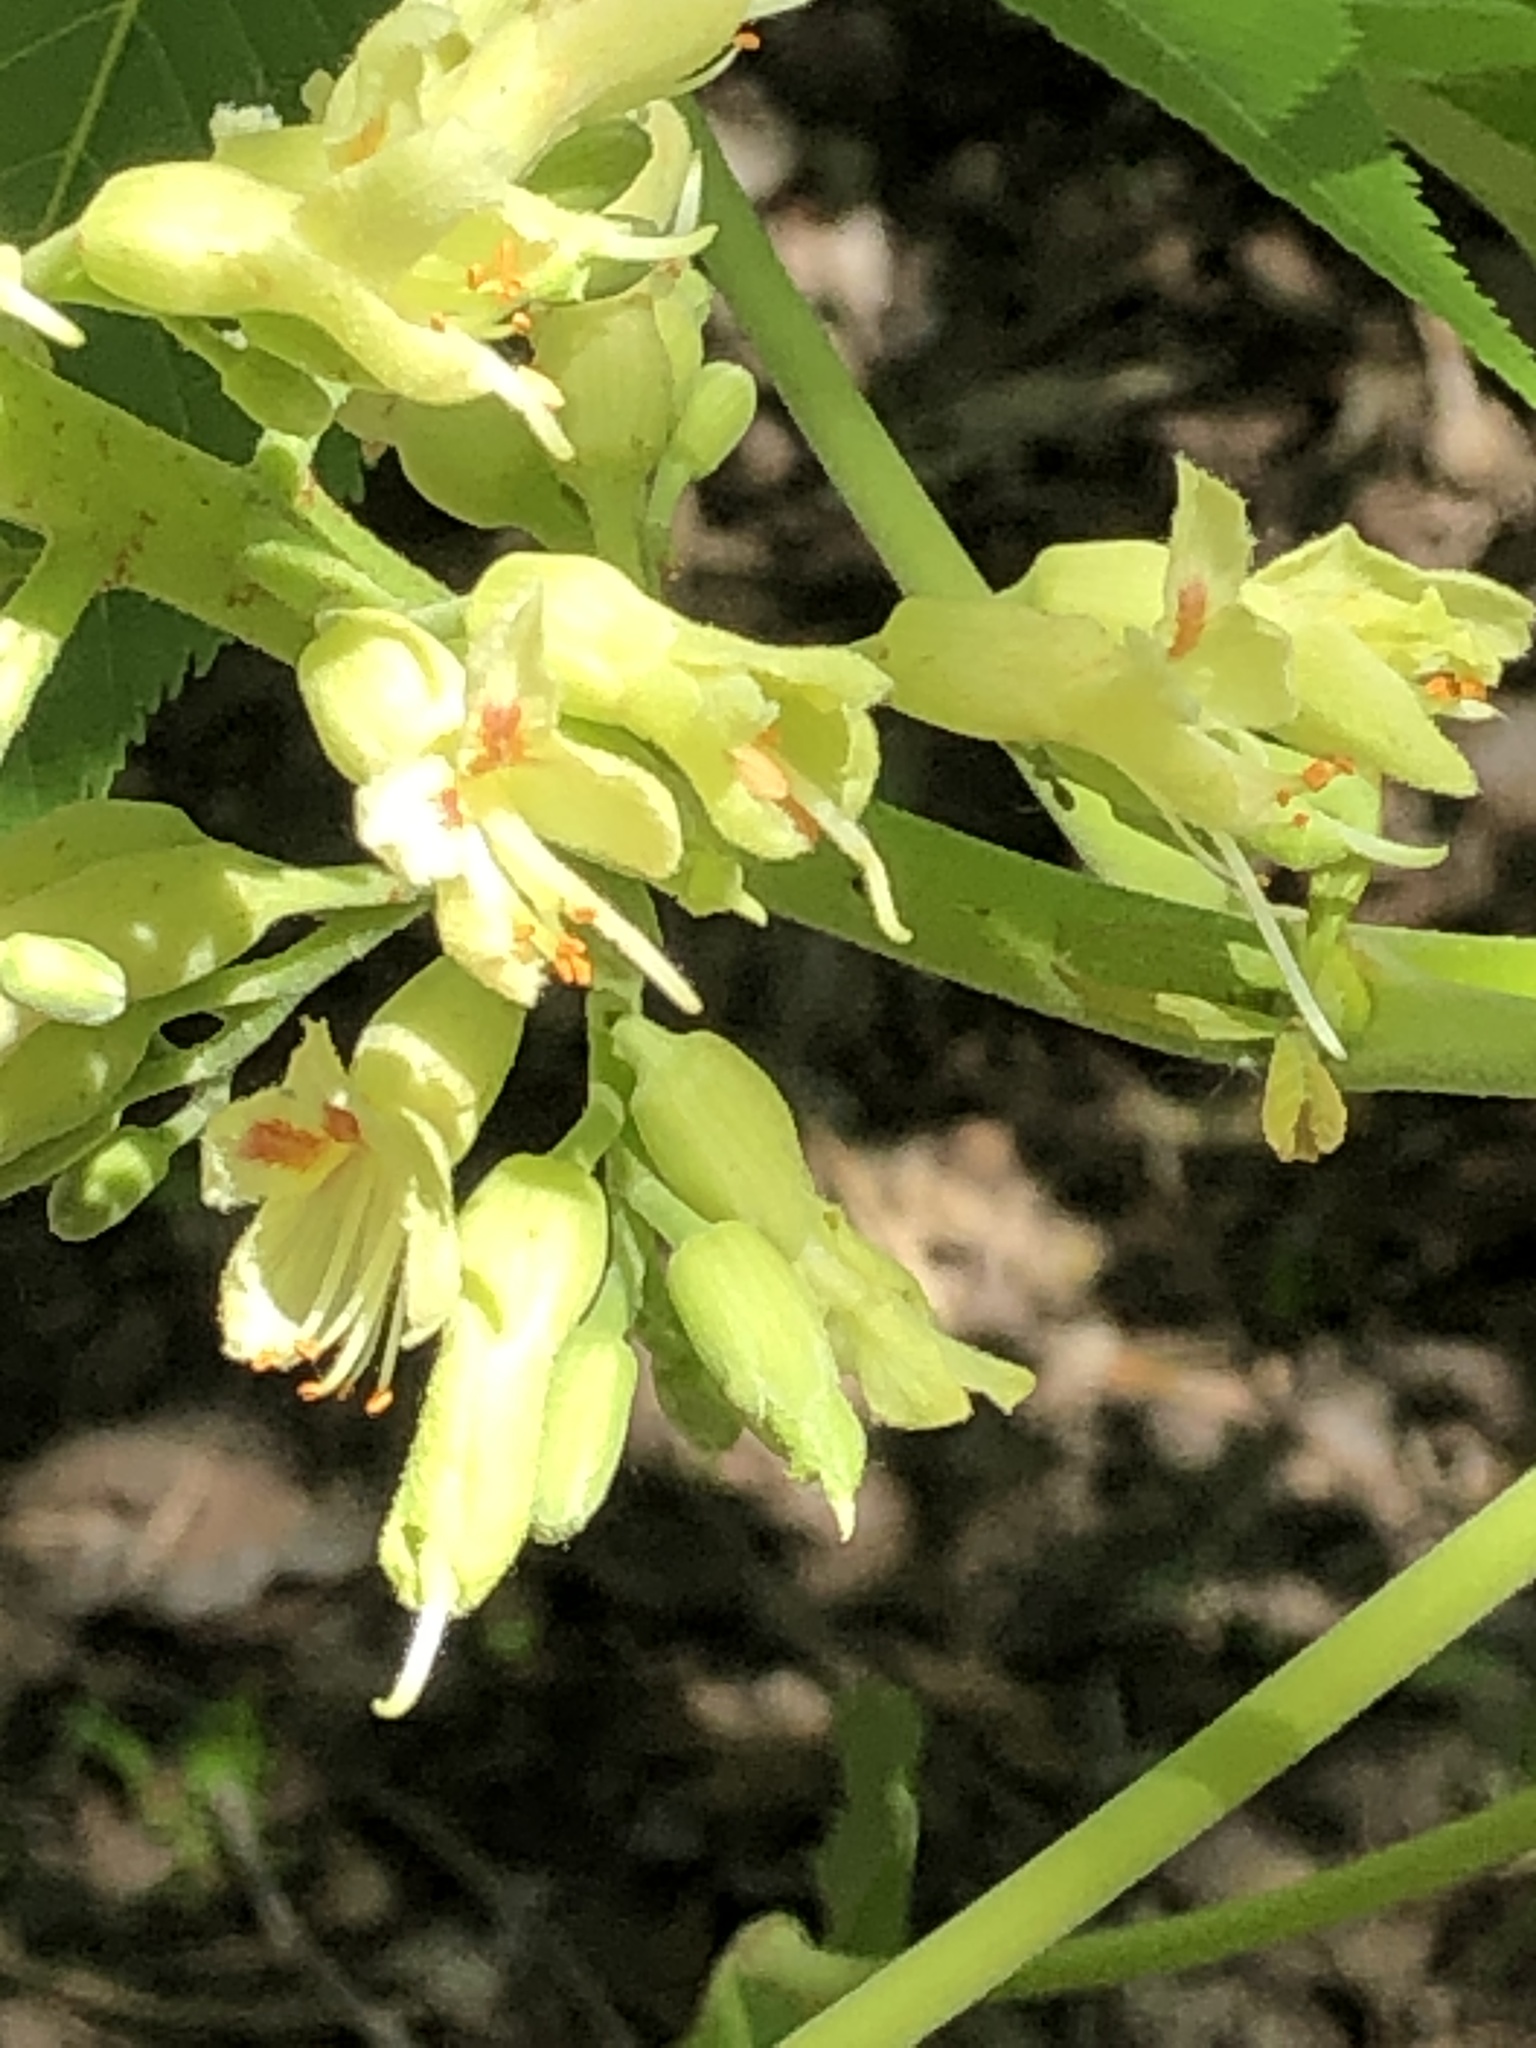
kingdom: Plantae
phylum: Tracheophyta
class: Magnoliopsida
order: Sapindales
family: Sapindaceae
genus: Aesculus
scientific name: Aesculus glabra
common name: Ohio buckeye
